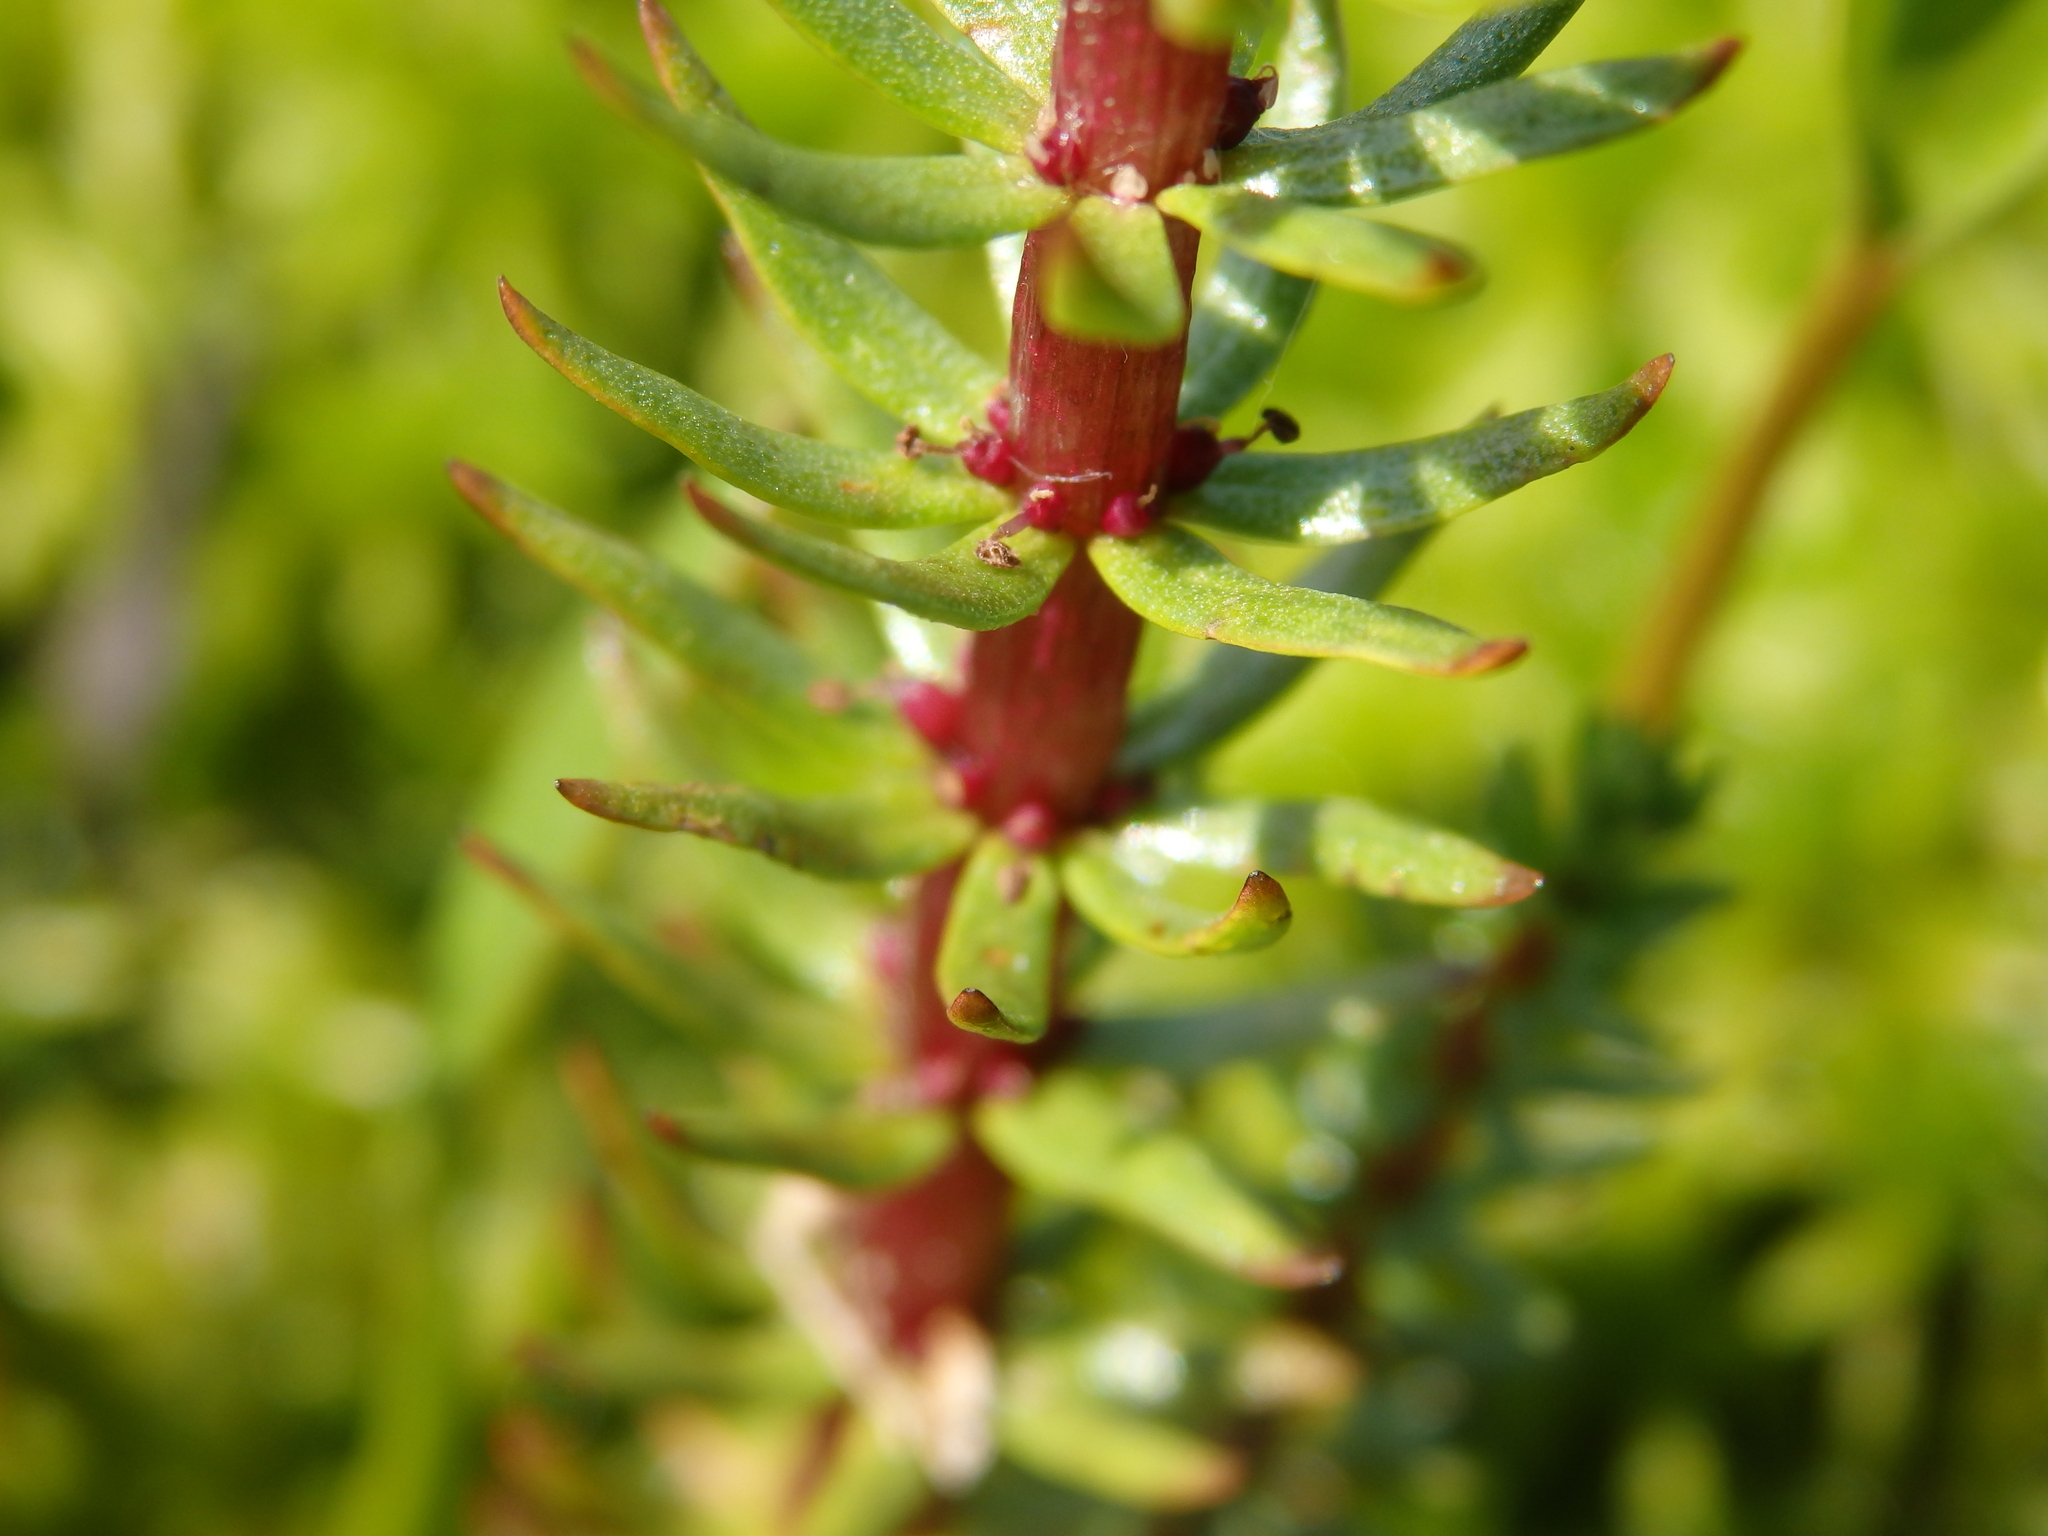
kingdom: Plantae
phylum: Tracheophyta
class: Magnoliopsida
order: Lamiales
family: Plantaginaceae
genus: Hippuris
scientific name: Hippuris vulgaris
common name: Mare's-tail
